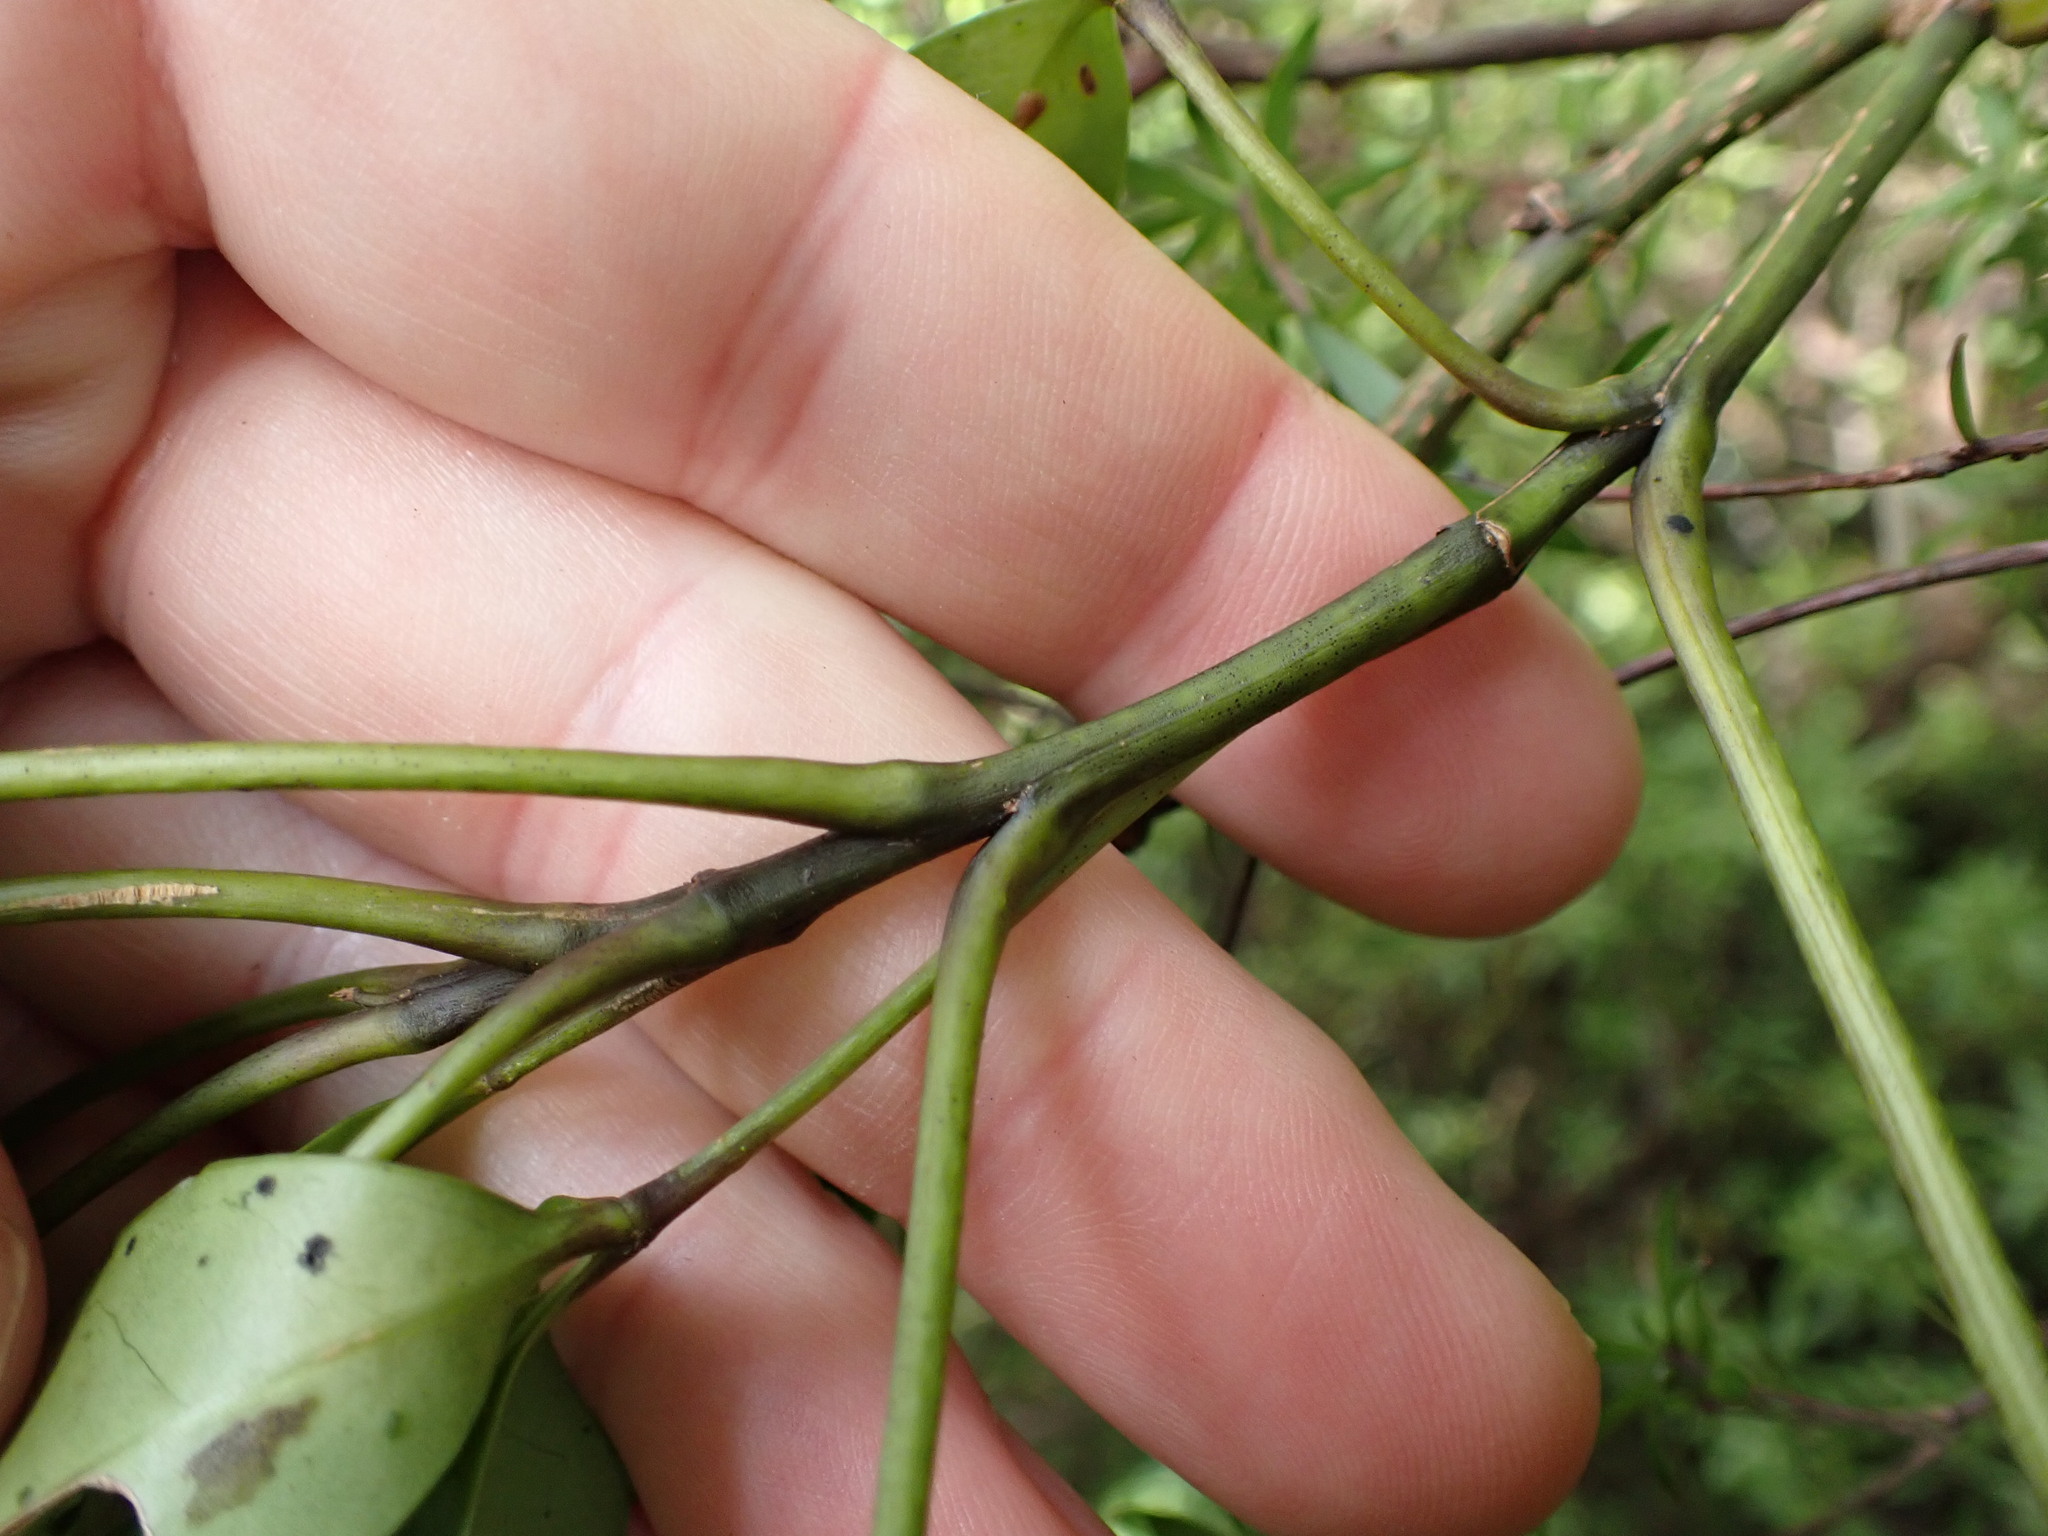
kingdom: Plantae
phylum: Tracheophyta
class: Magnoliopsida
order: Apiales
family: Araliaceae
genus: Raukaua
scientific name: Raukaua simplex
